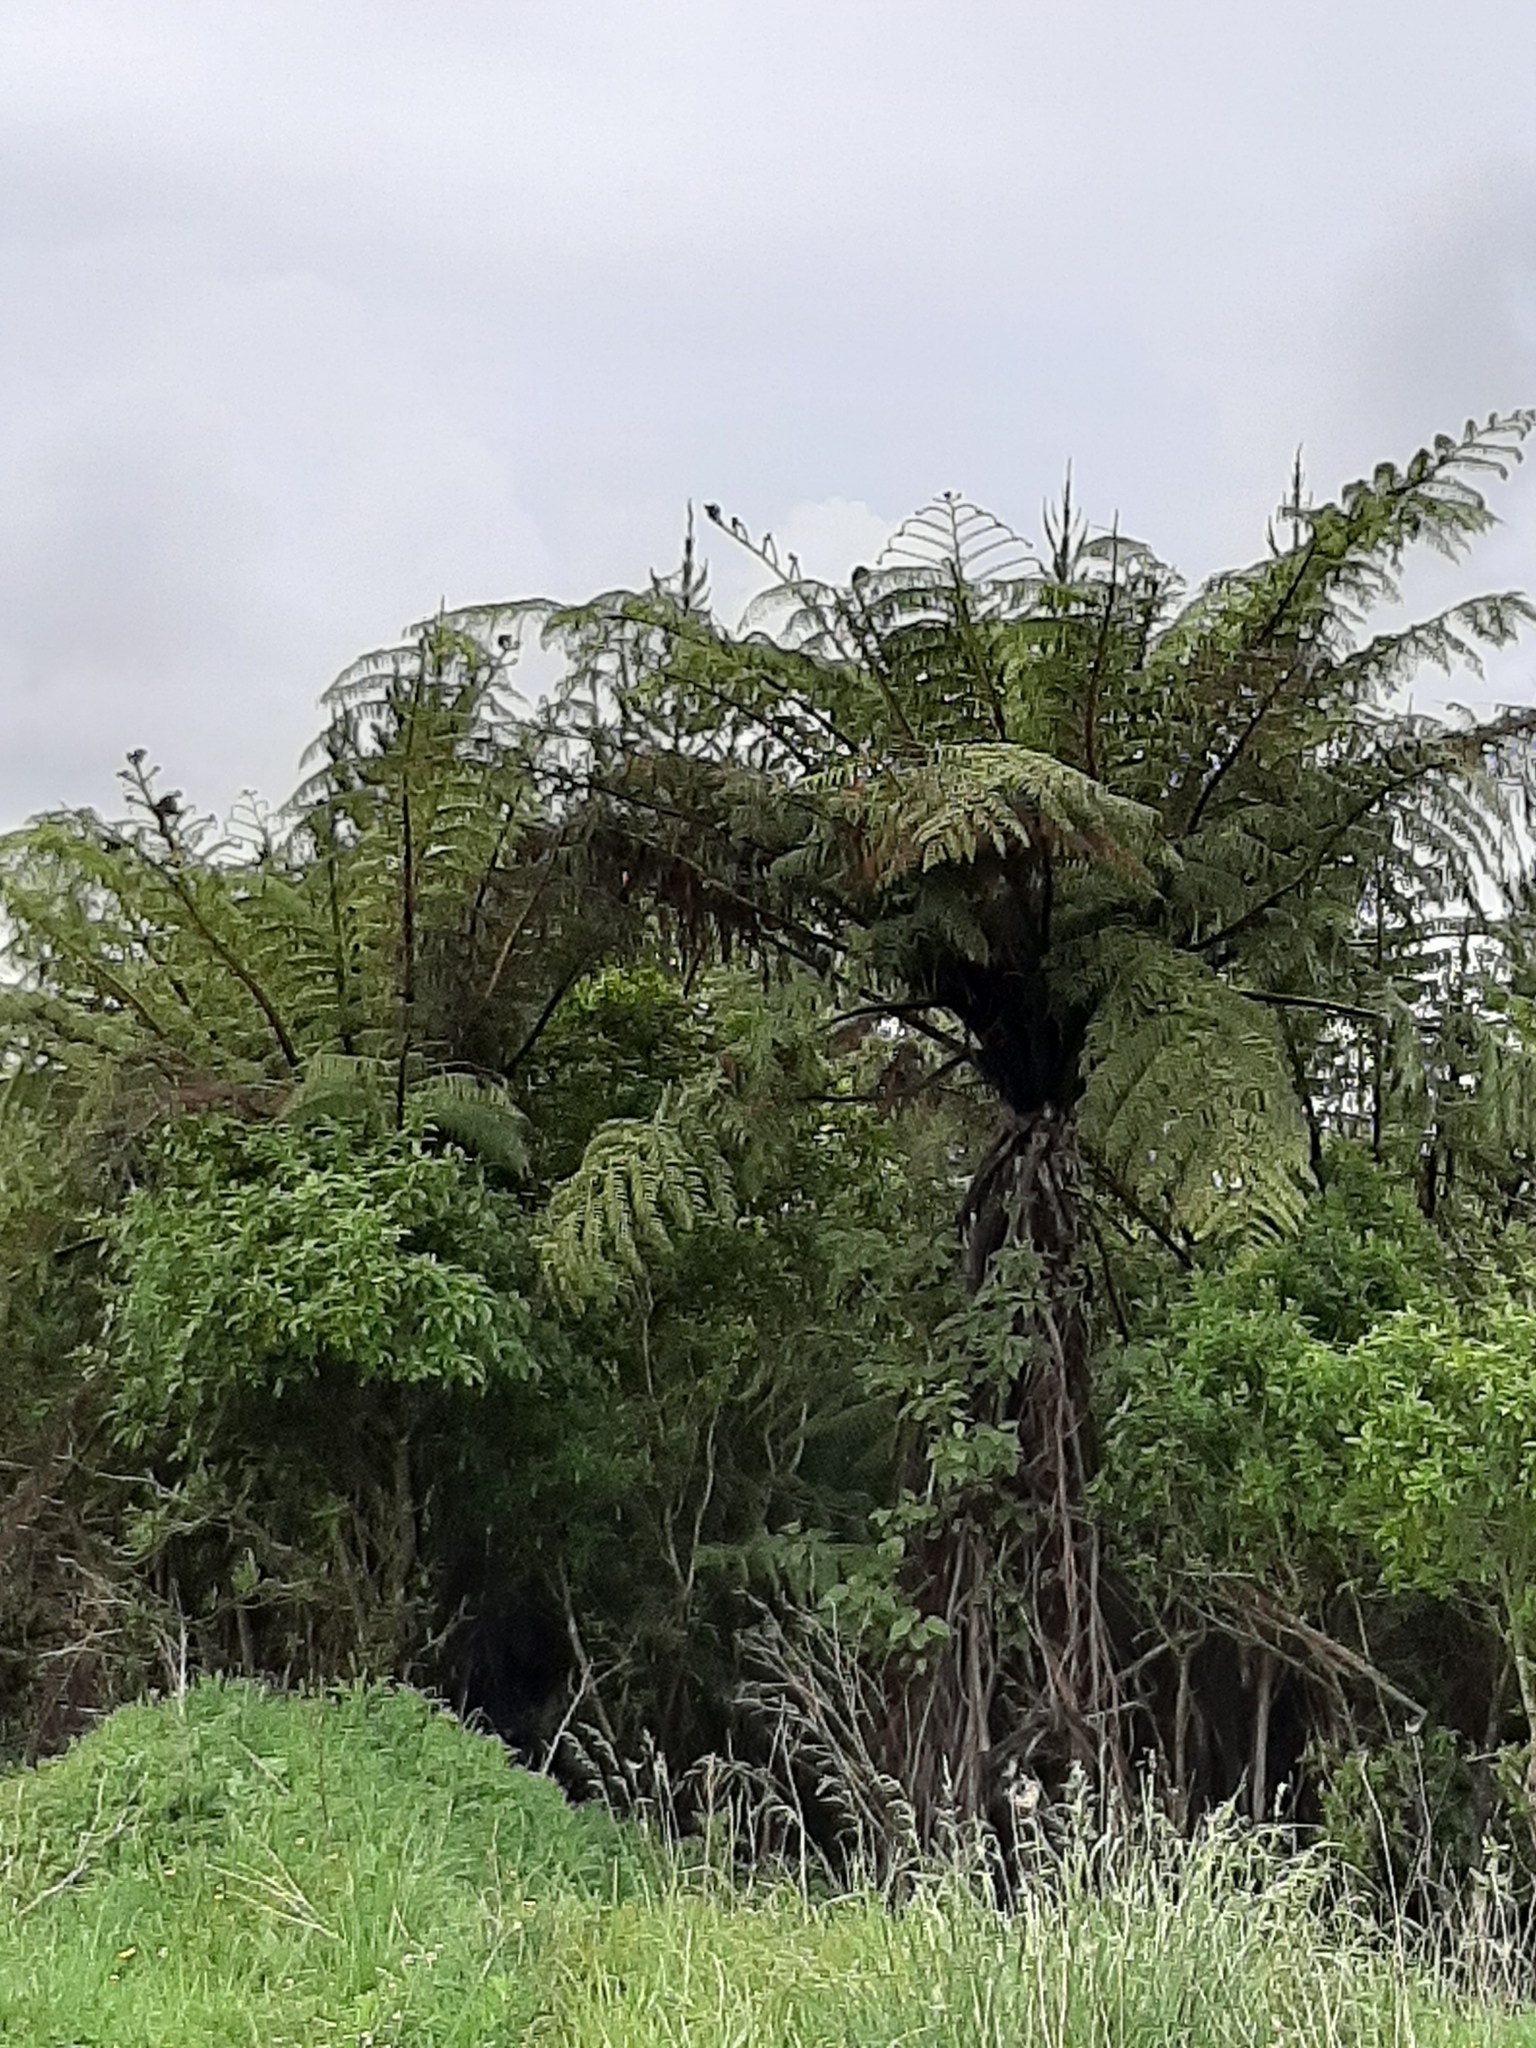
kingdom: Plantae
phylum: Tracheophyta
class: Polypodiopsida
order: Cyatheales
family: Cyatheaceae
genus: Sphaeropteris
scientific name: Sphaeropteris medullaris
